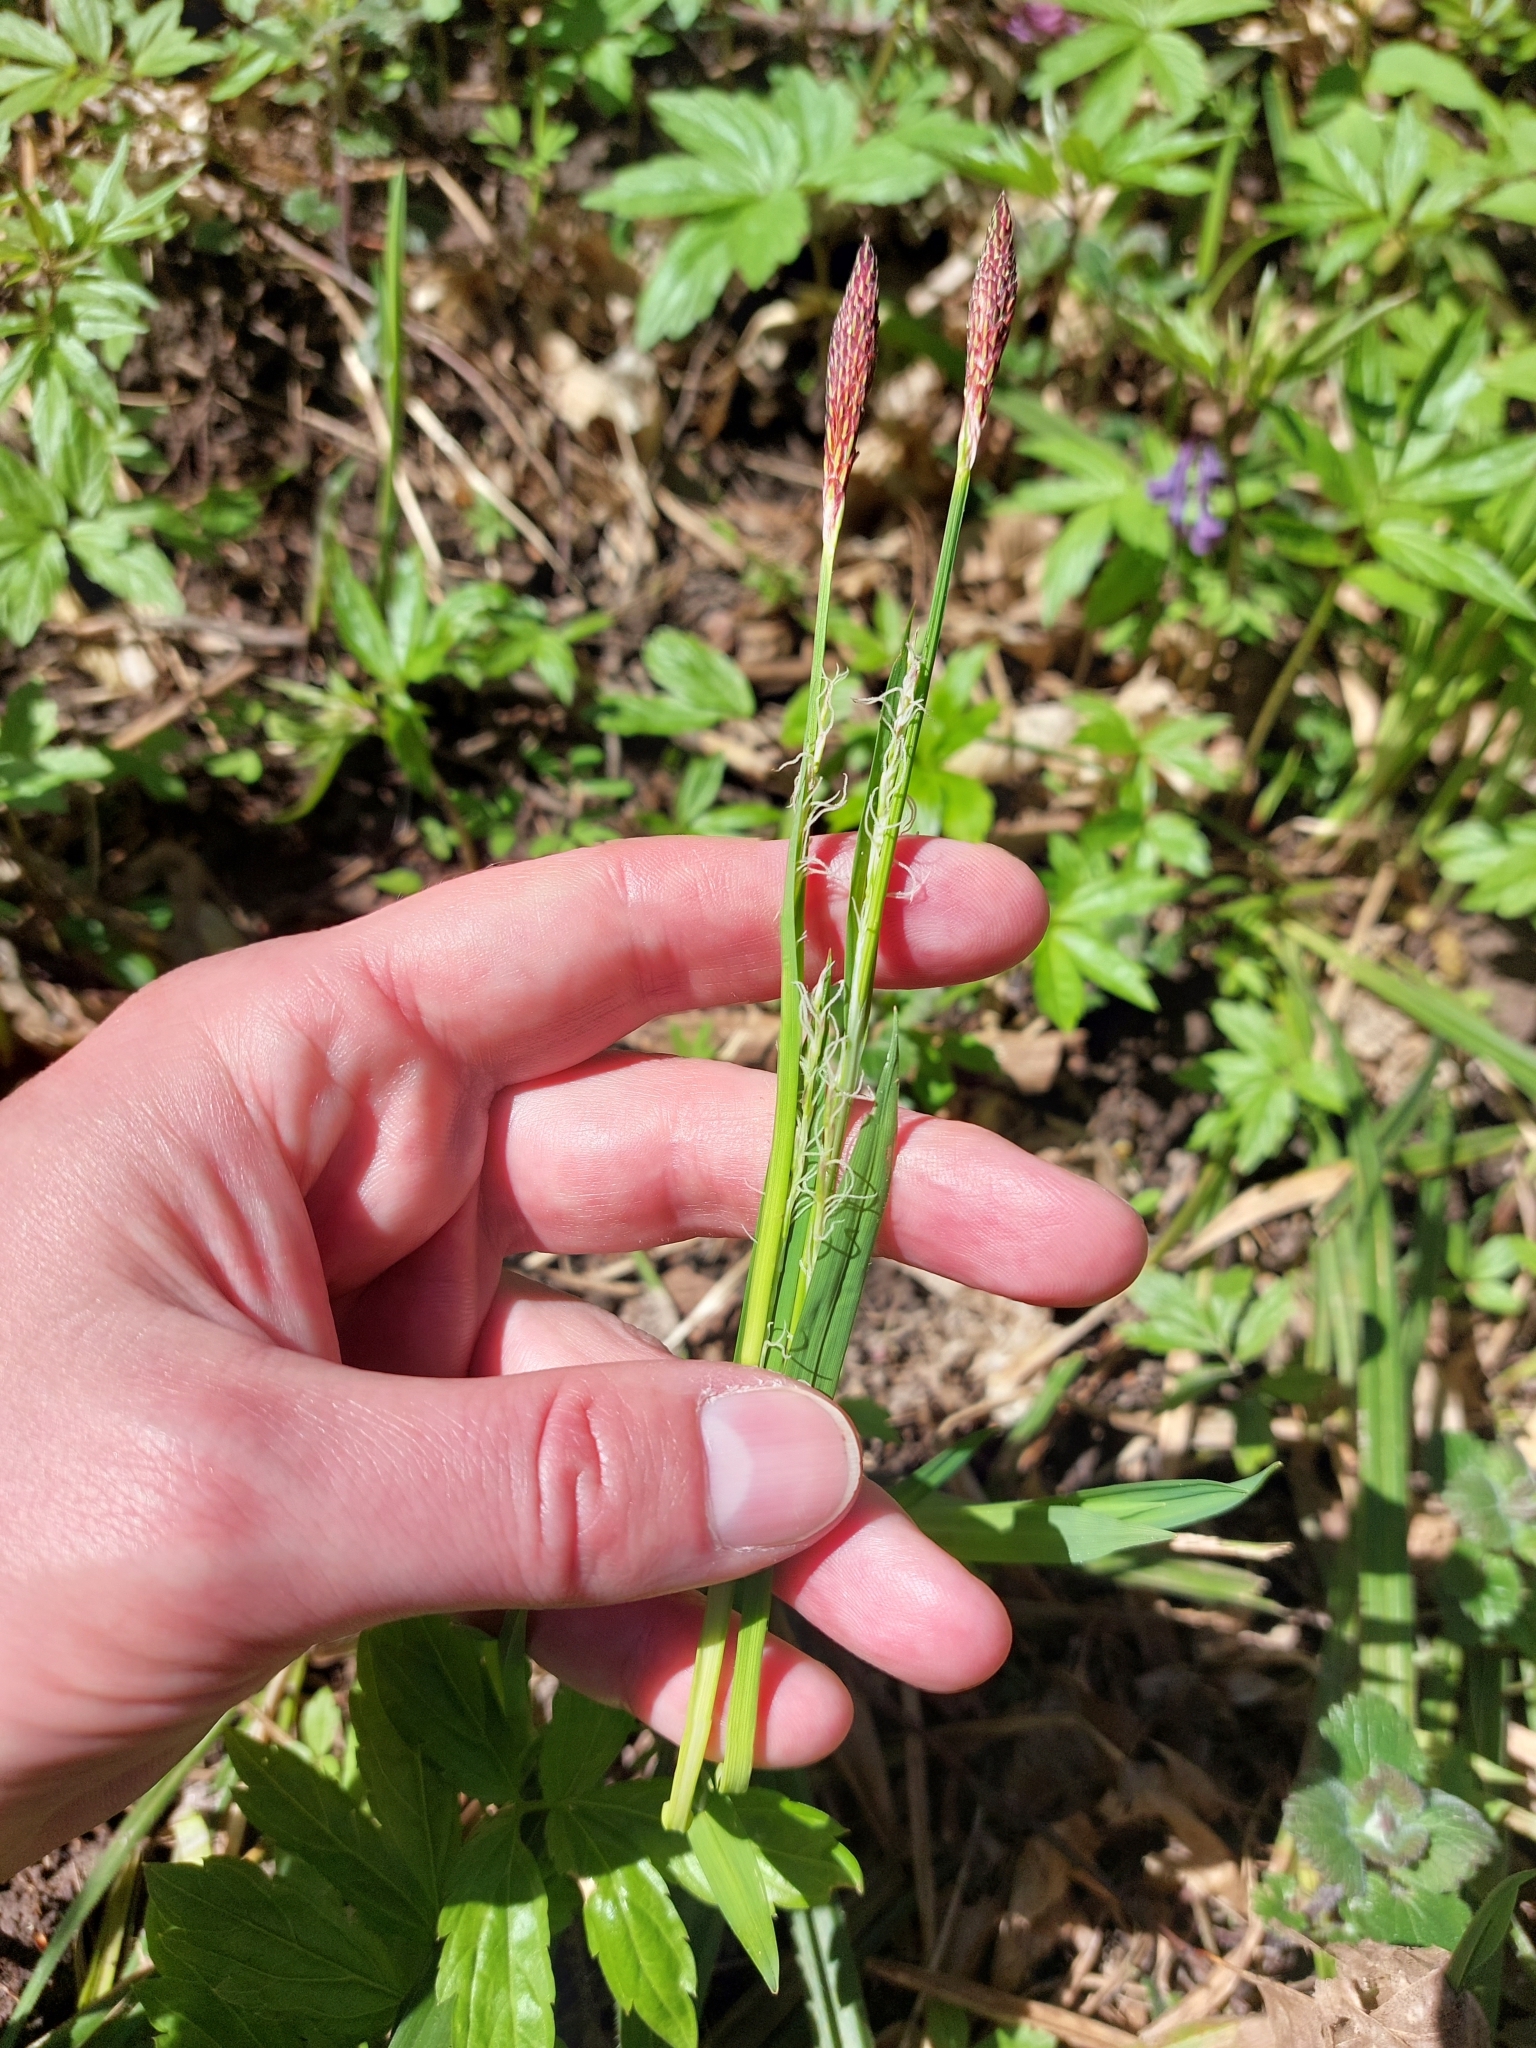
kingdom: Plantae
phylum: Tracheophyta
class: Liliopsida
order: Poales
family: Cyperaceae
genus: Carex
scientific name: Carex pilosa
